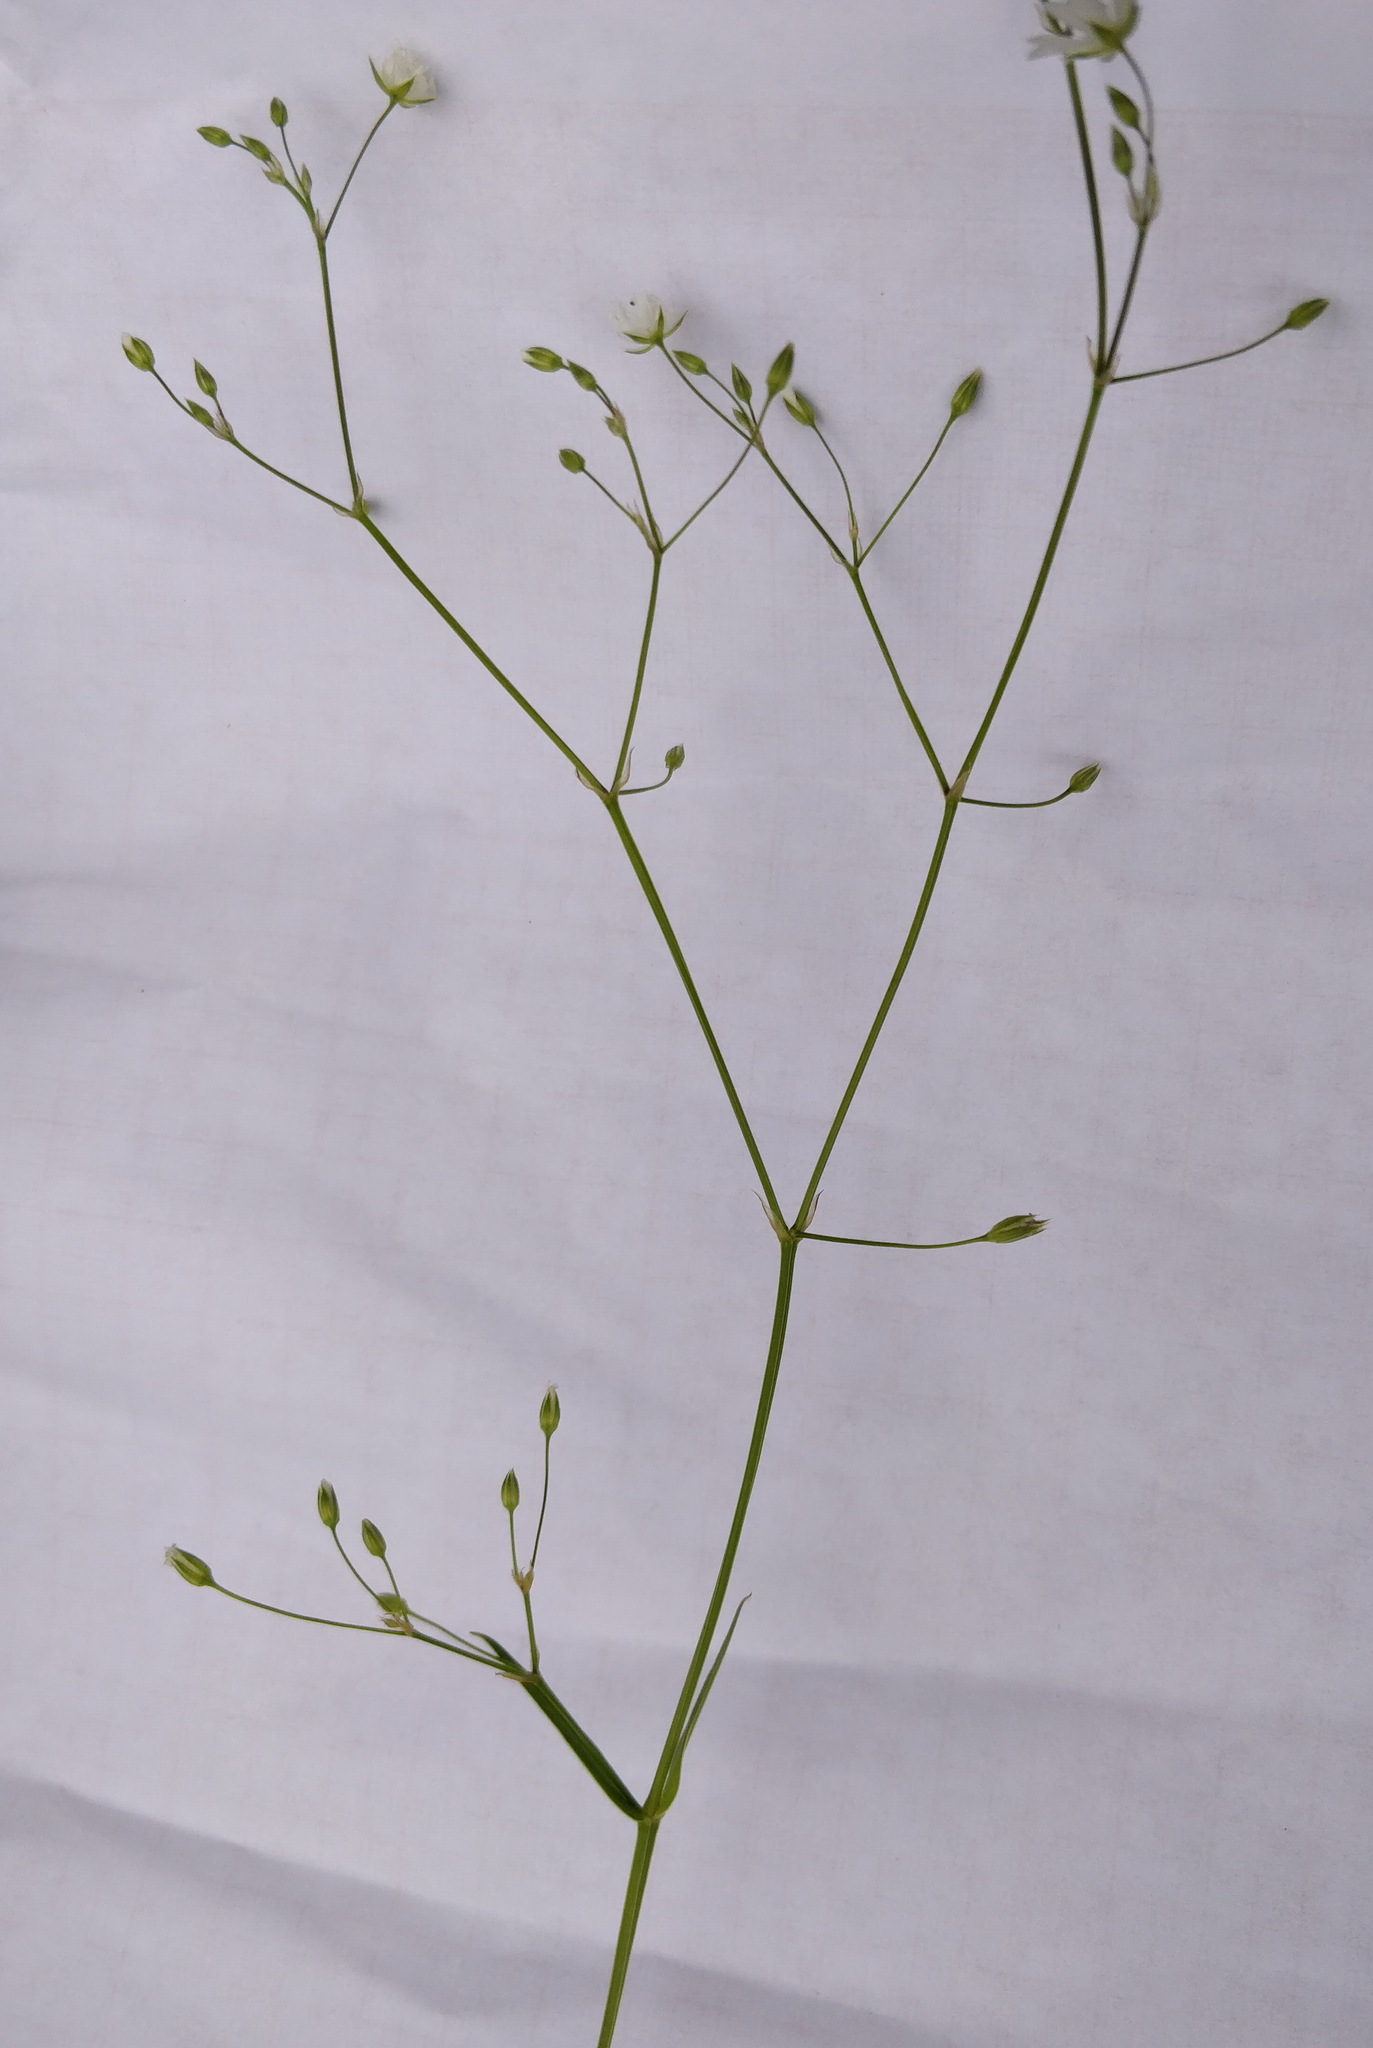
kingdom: Plantae
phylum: Tracheophyta
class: Magnoliopsida
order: Caryophyllales
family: Caryophyllaceae
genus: Stellaria
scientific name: Stellaria graminea
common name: Grass-like starwort
